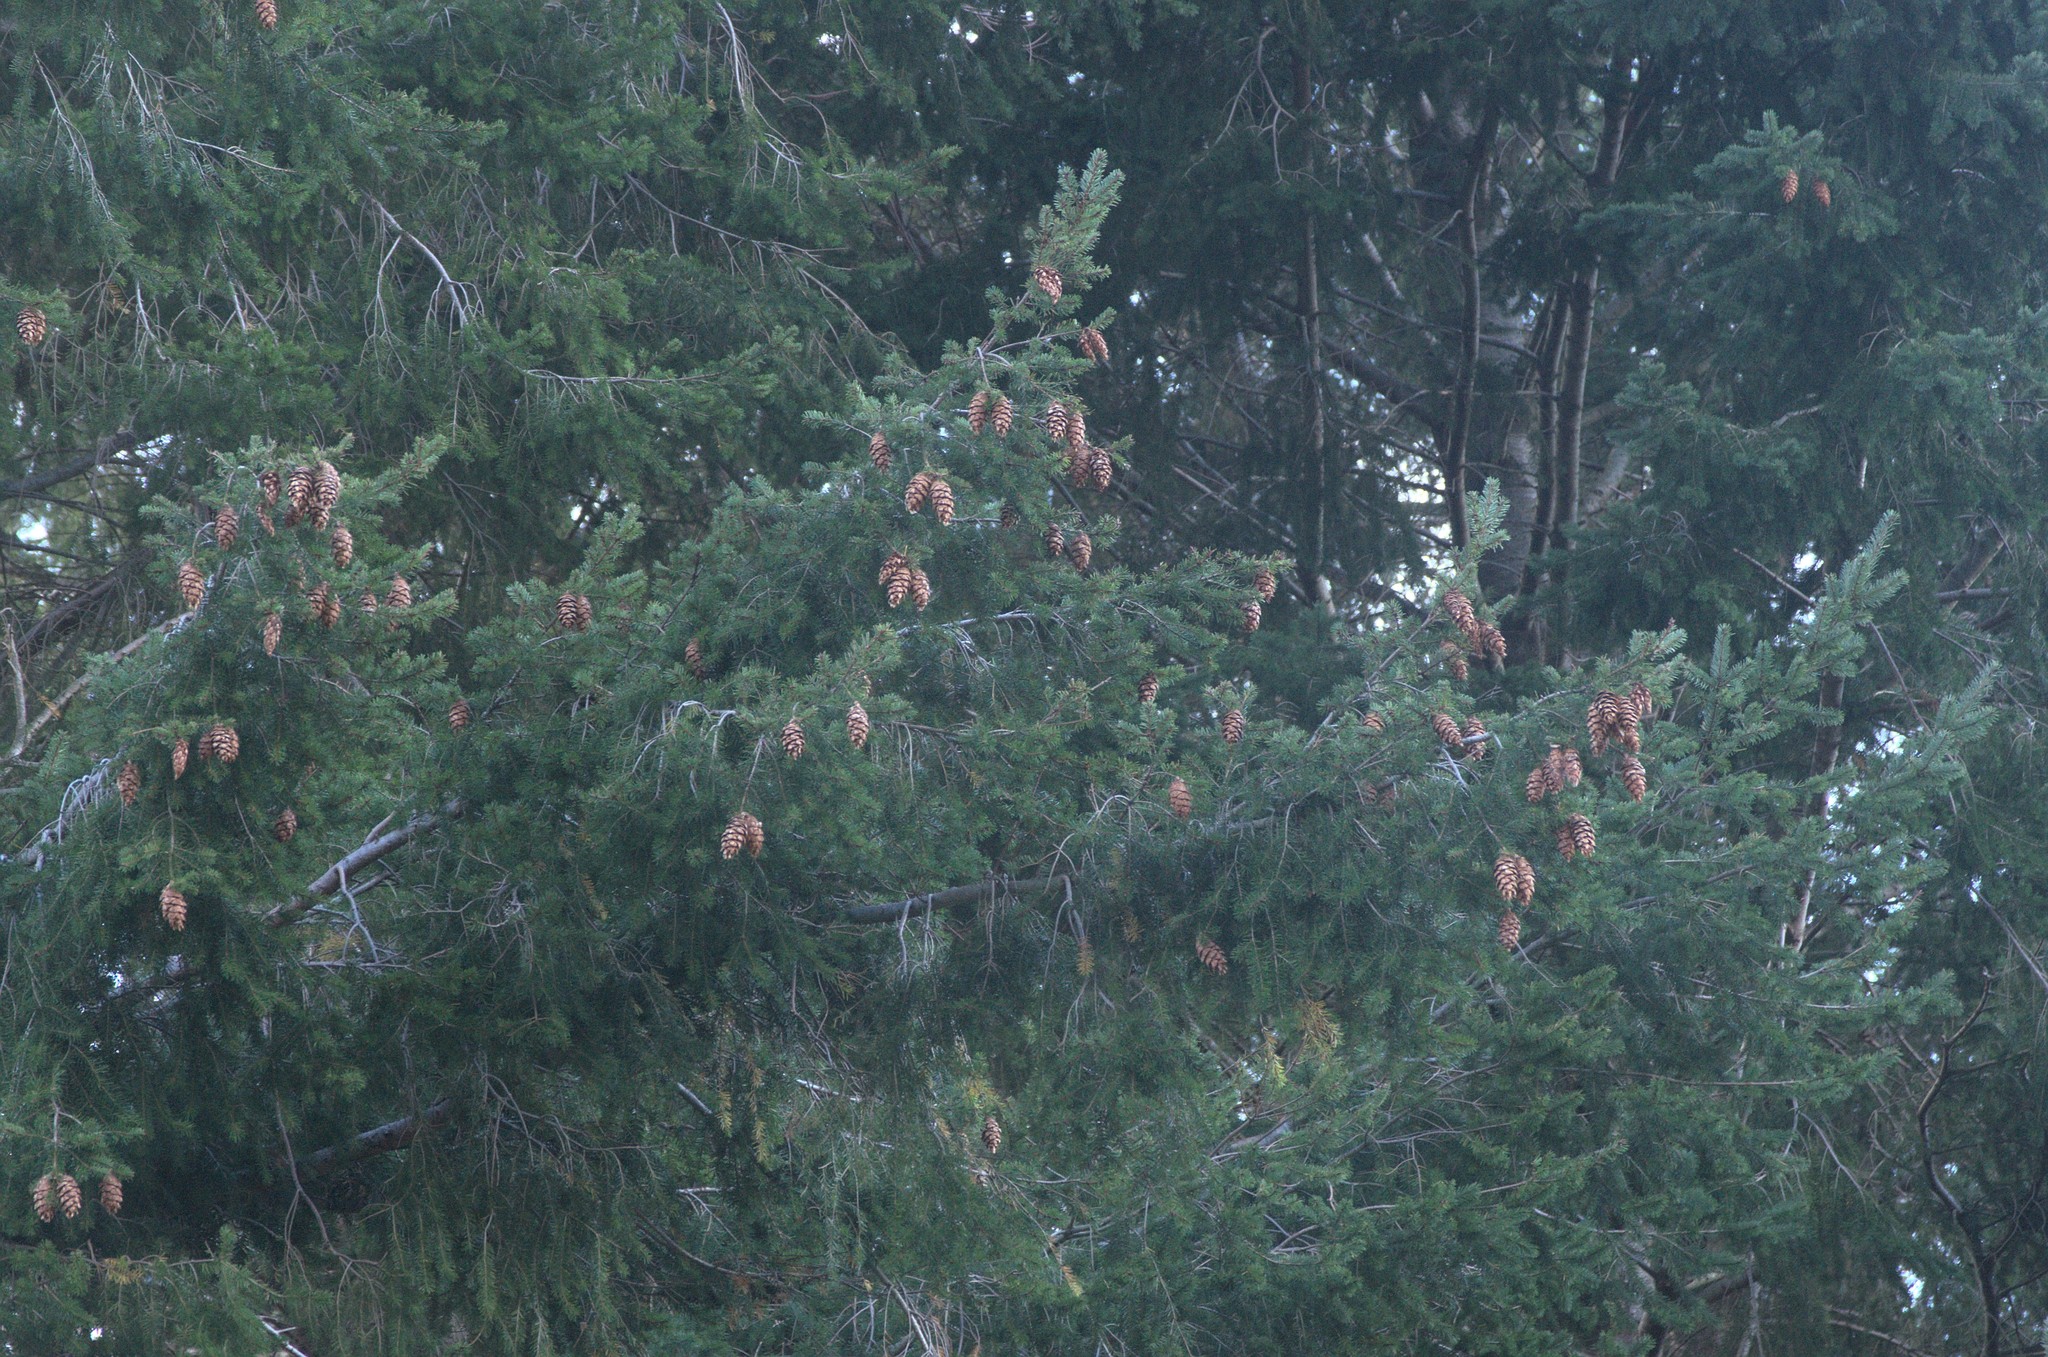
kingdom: Plantae
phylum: Tracheophyta
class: Pinopsida
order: Pinales
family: Pinaceae
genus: Pseudotsuga
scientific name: Pseudotsuga menziesii
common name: Douglas fir
